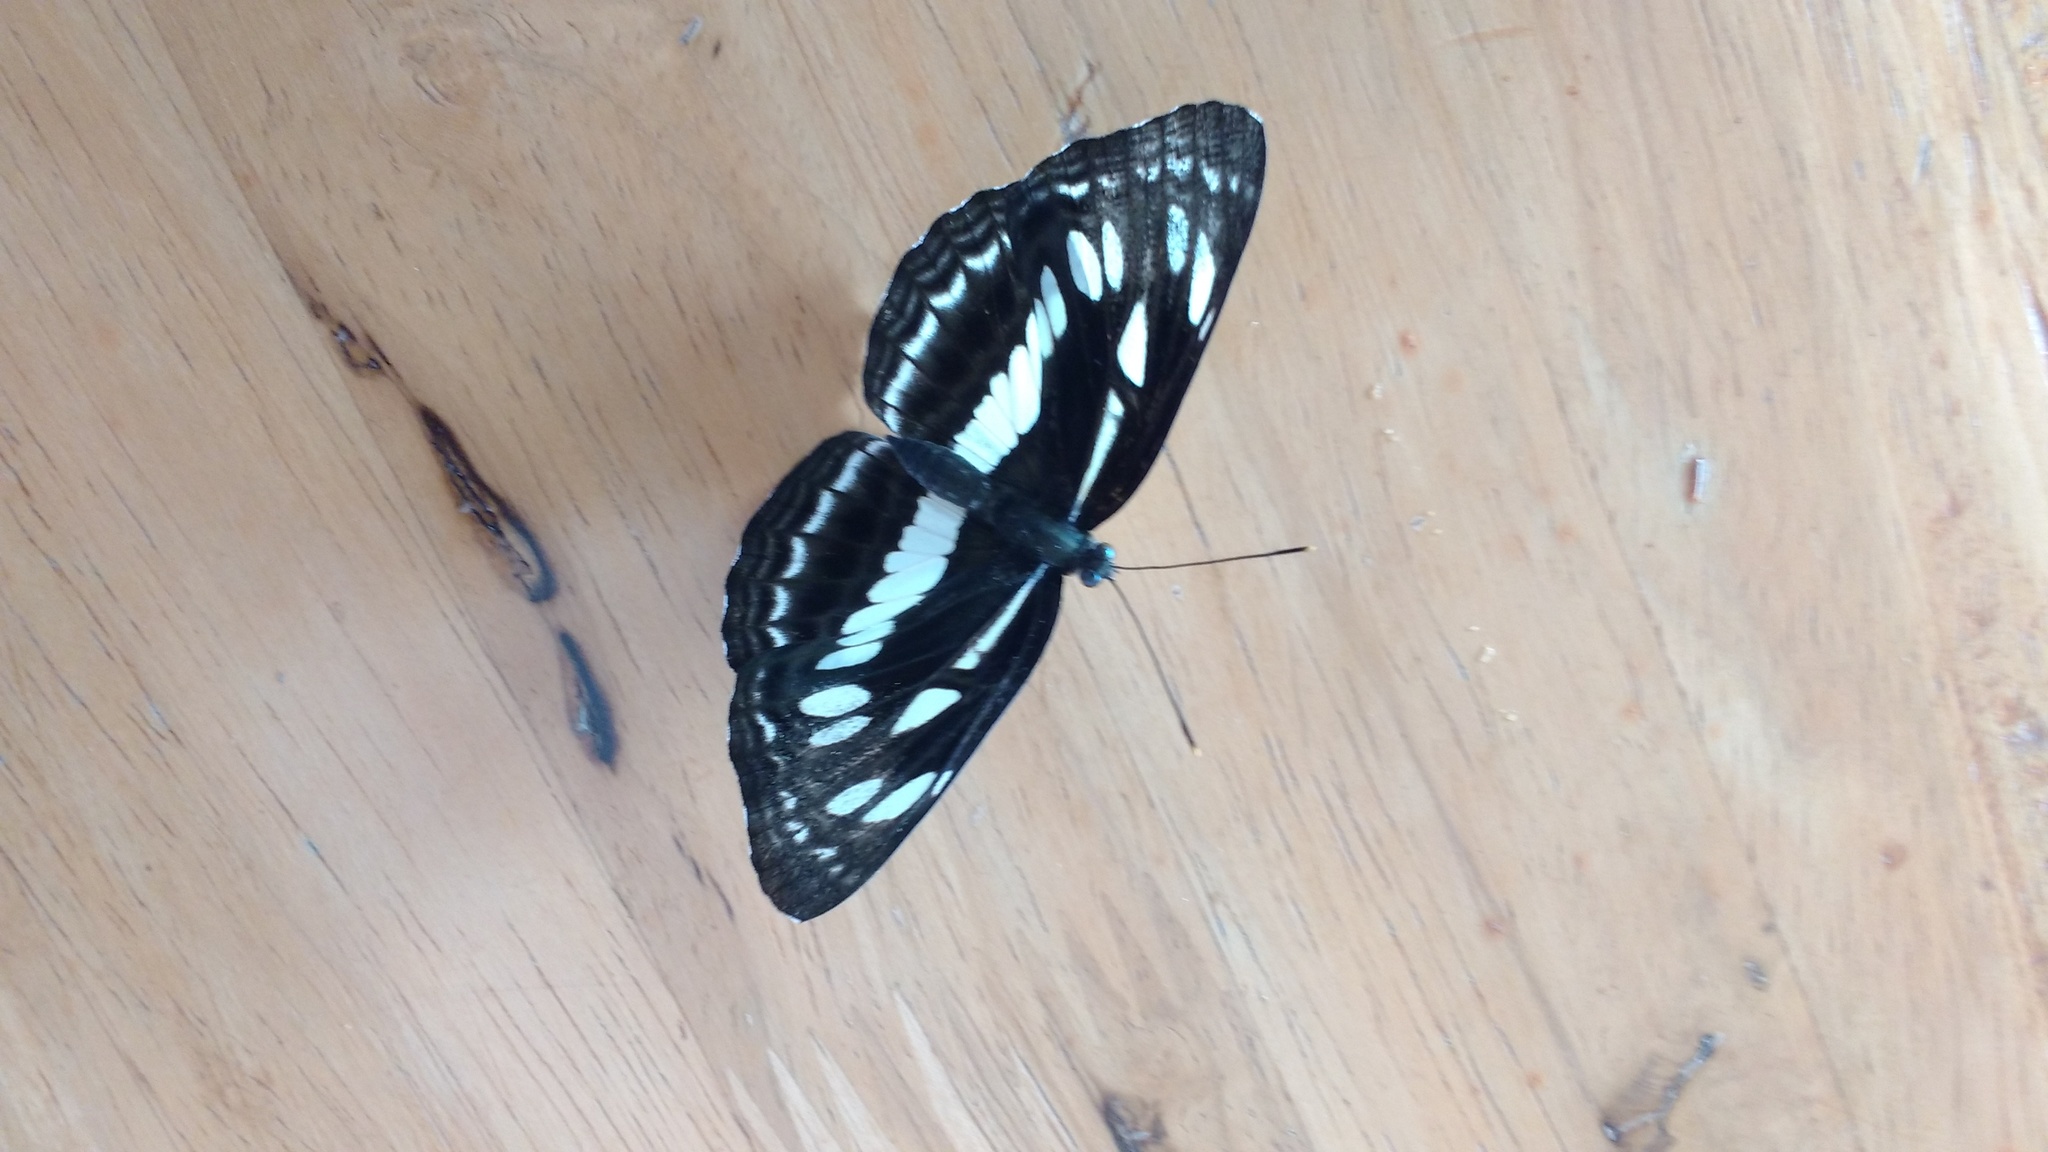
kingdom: Animalia
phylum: Arthropoda
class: Insecta
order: Lepidoptera
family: Nymphalidae
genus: Neptis
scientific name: Neptis jumbah
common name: Chestnut-streaked sailer
